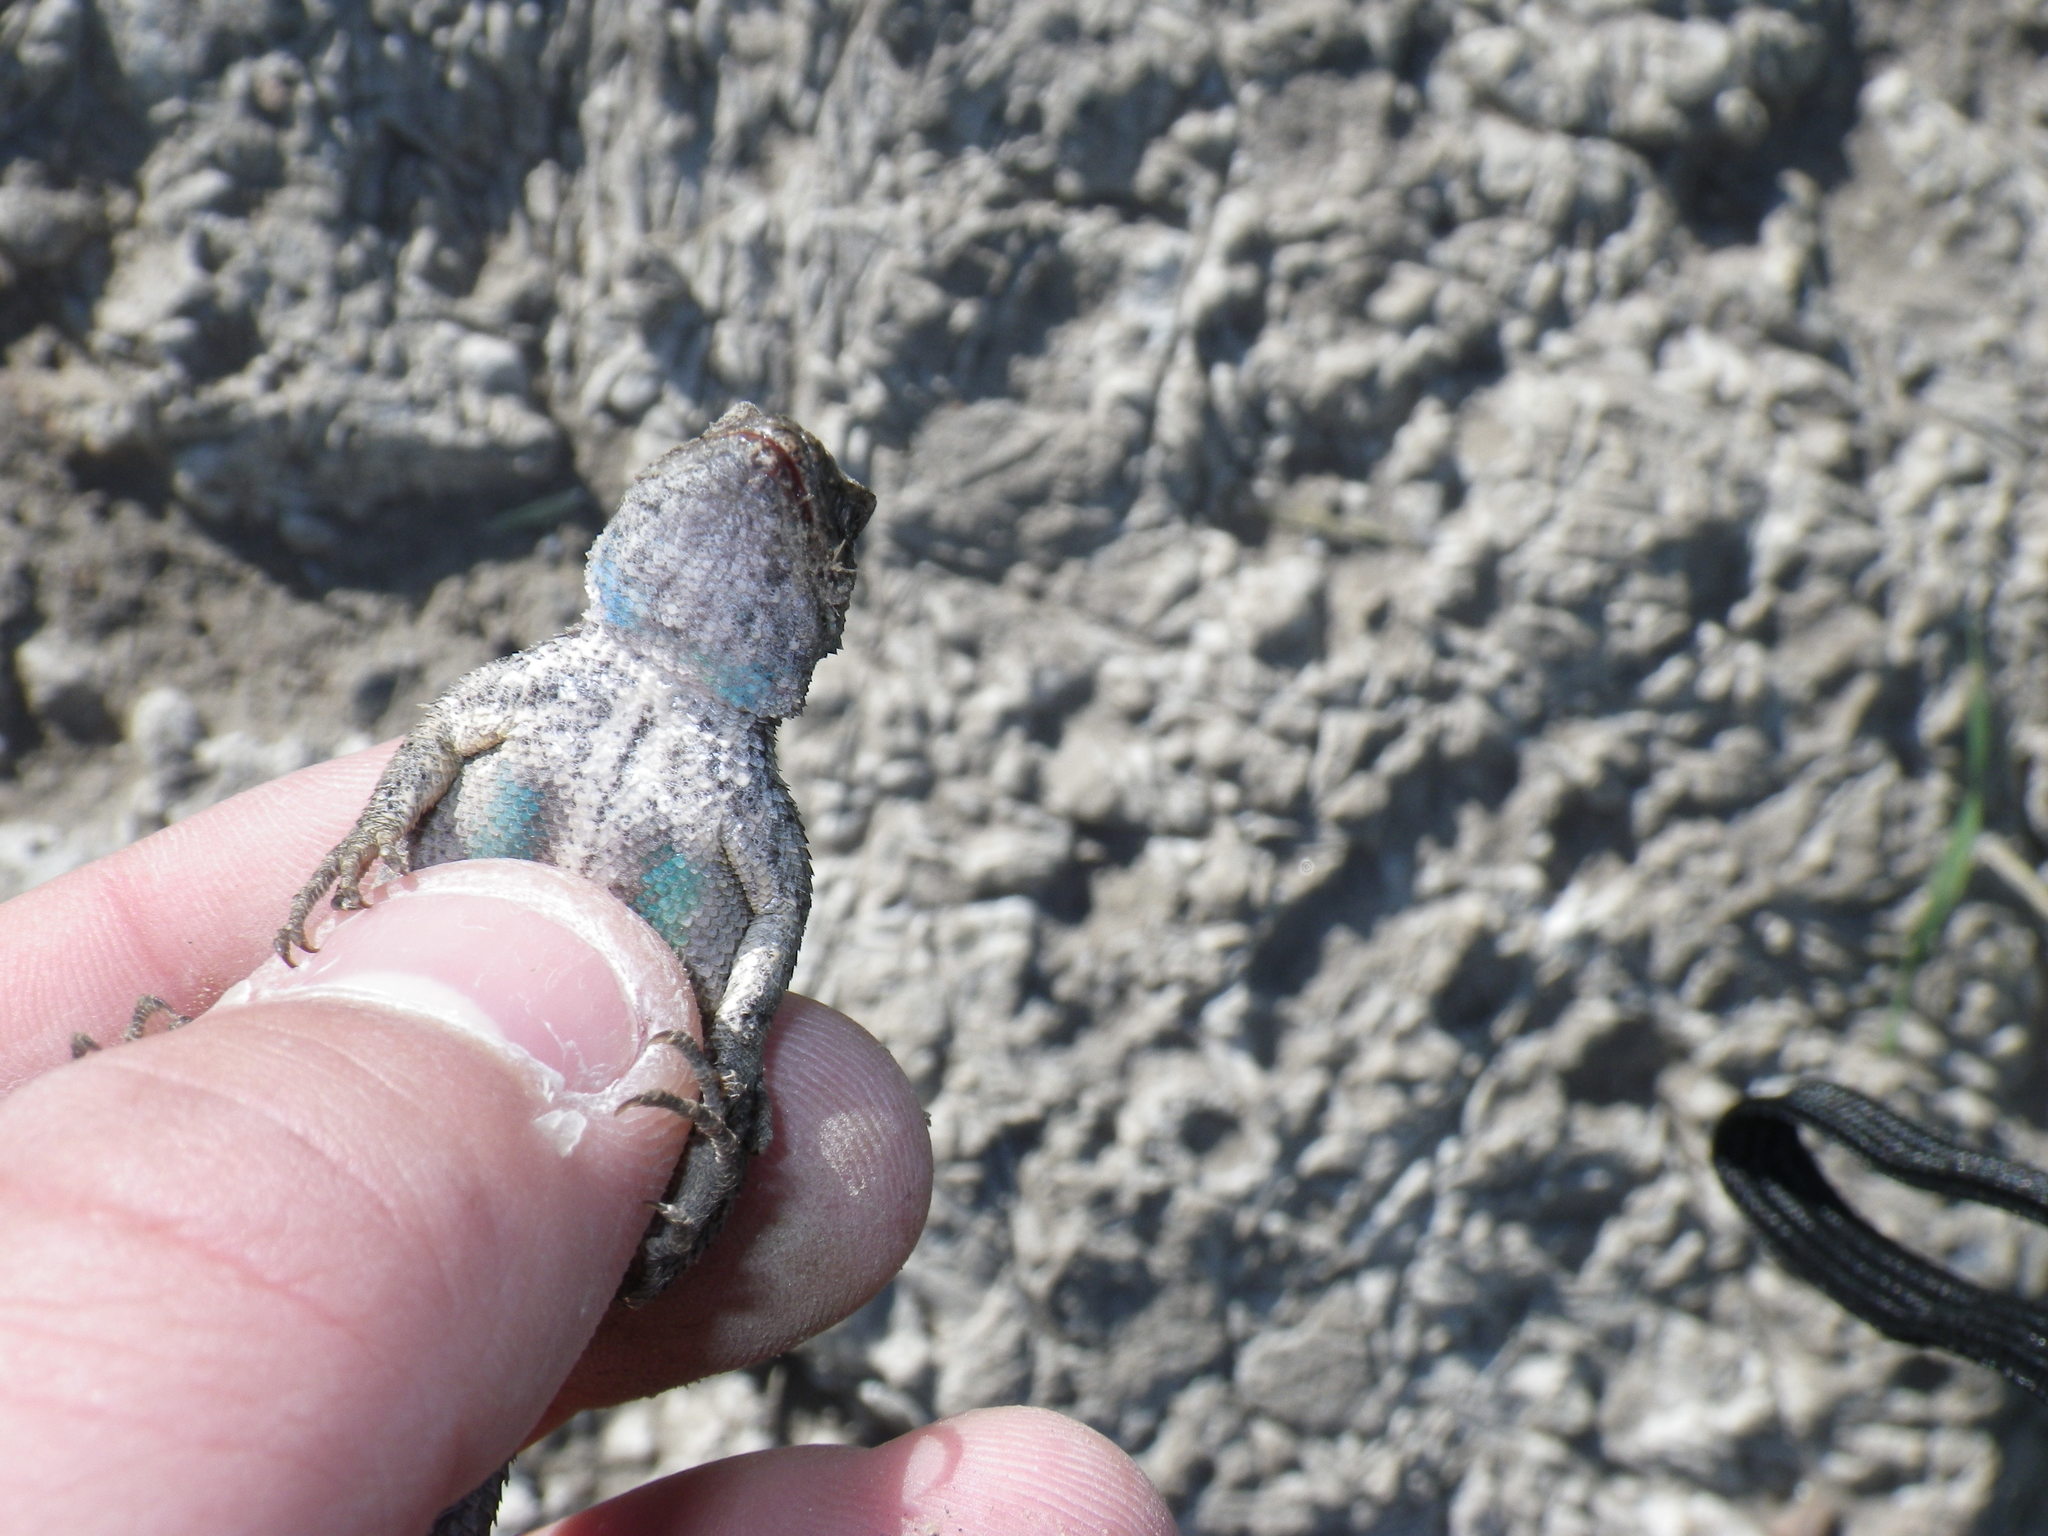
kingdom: Animalia
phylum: Chordata
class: Squamata
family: Phrynosomatidae
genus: Sceloporus
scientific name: Sceloporus occidentalis
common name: Western fence lizard
